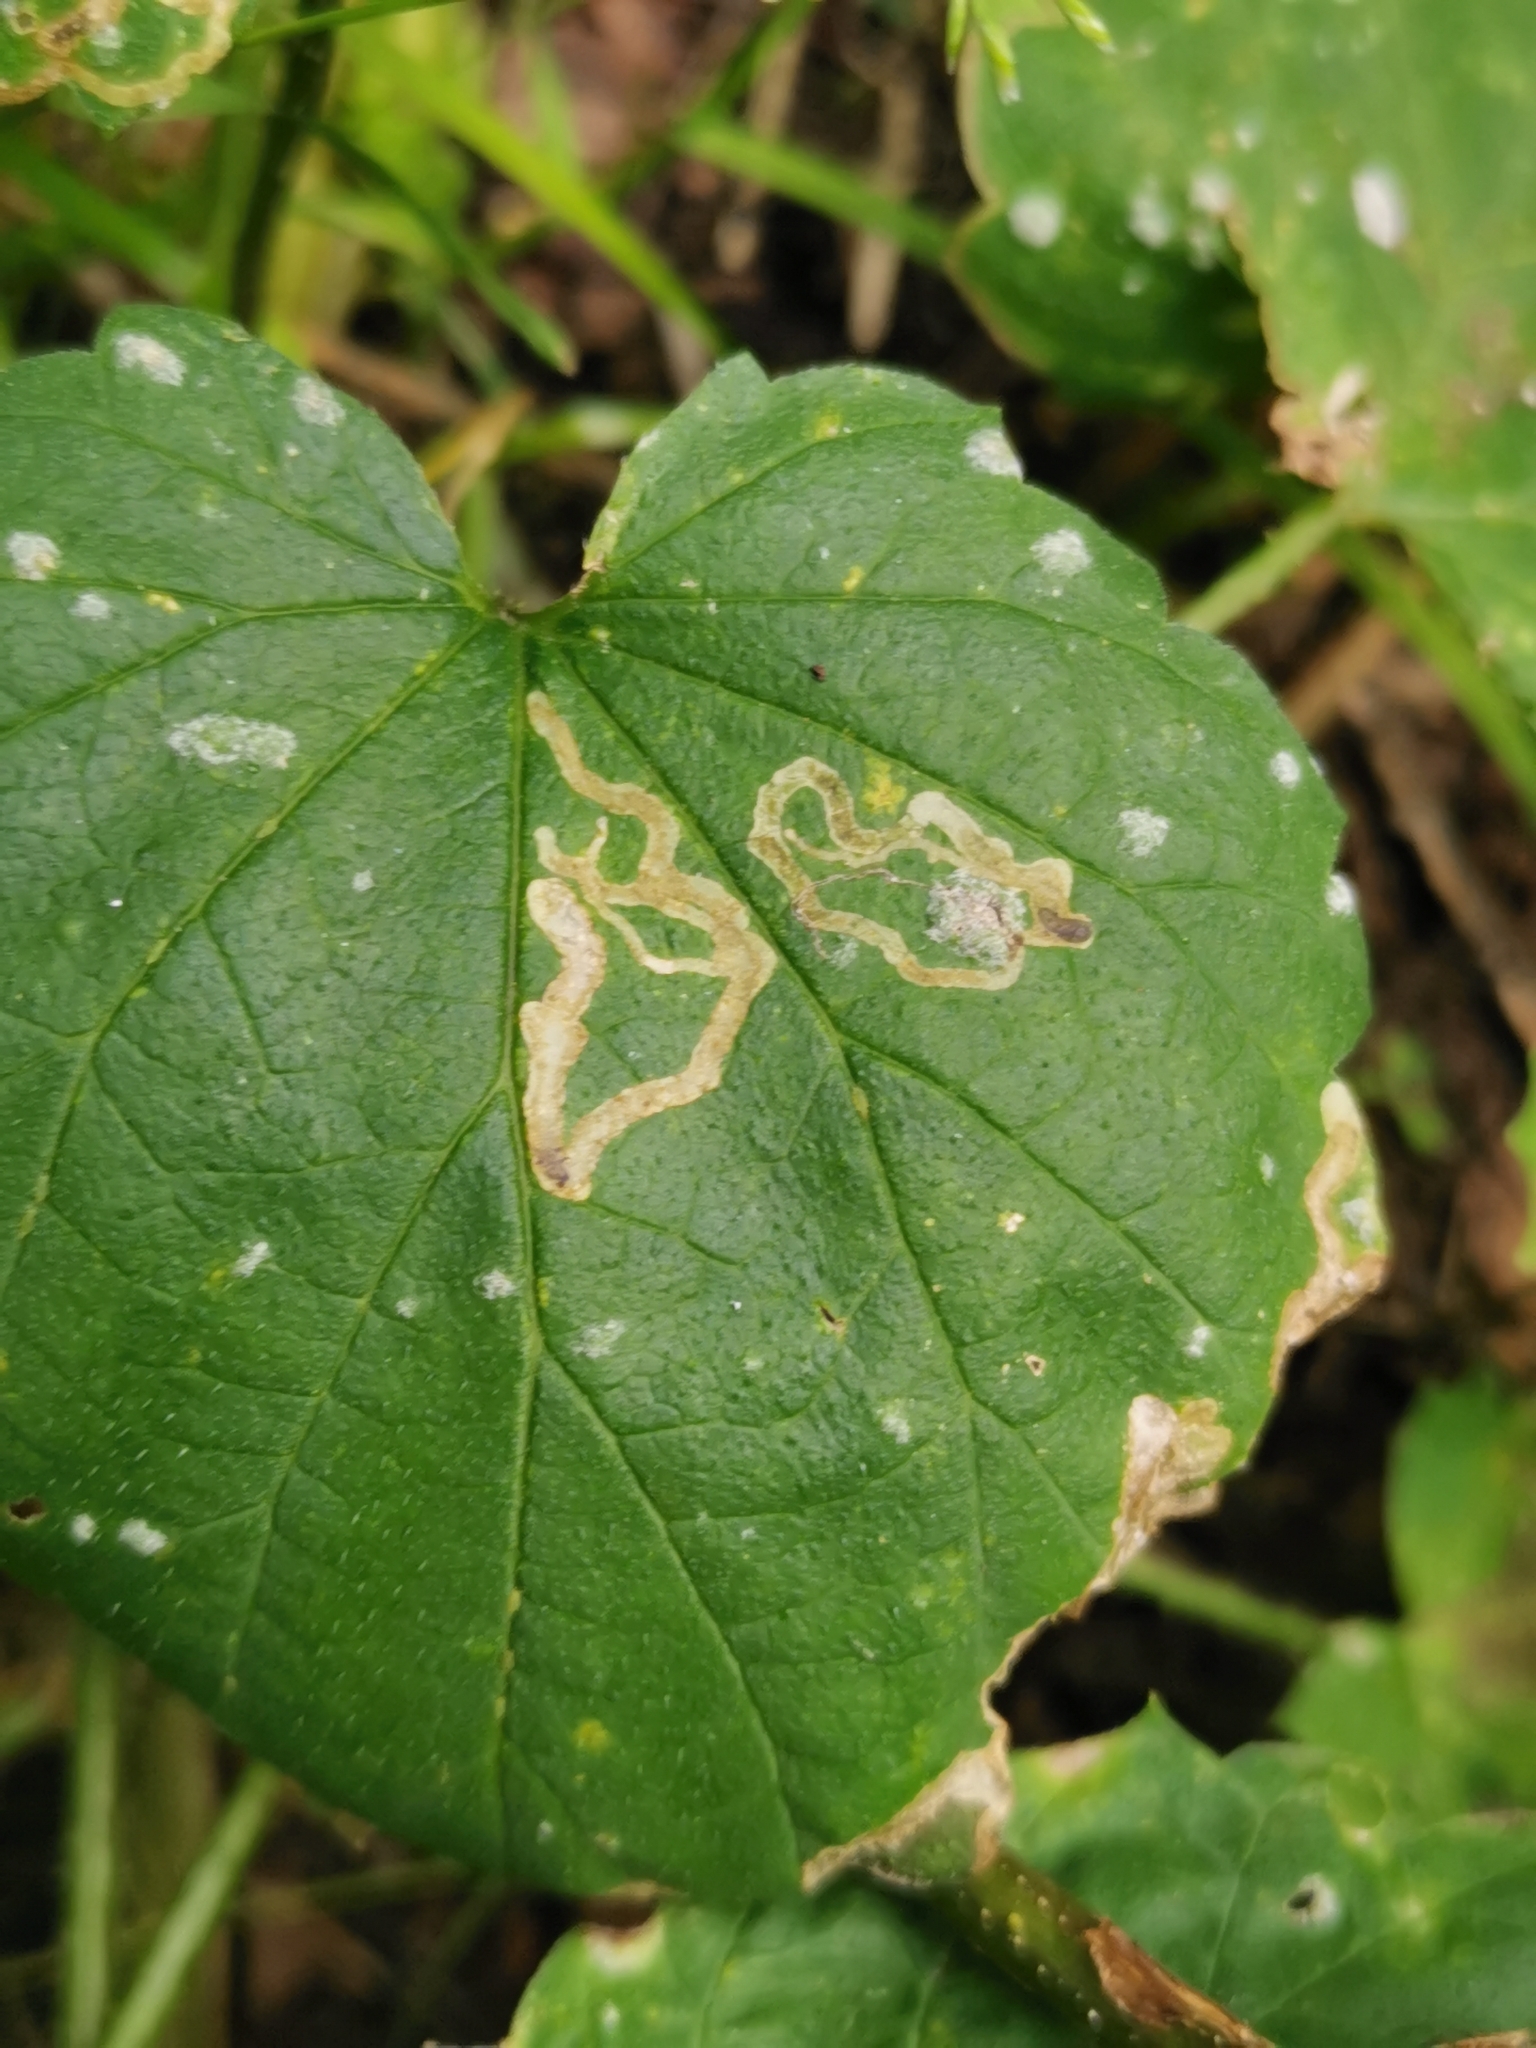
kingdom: Animalia
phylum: Arthropoda
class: Insecta
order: Diptera
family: Agromyzidae
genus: Agromyza
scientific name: Agromyza flaviceps
